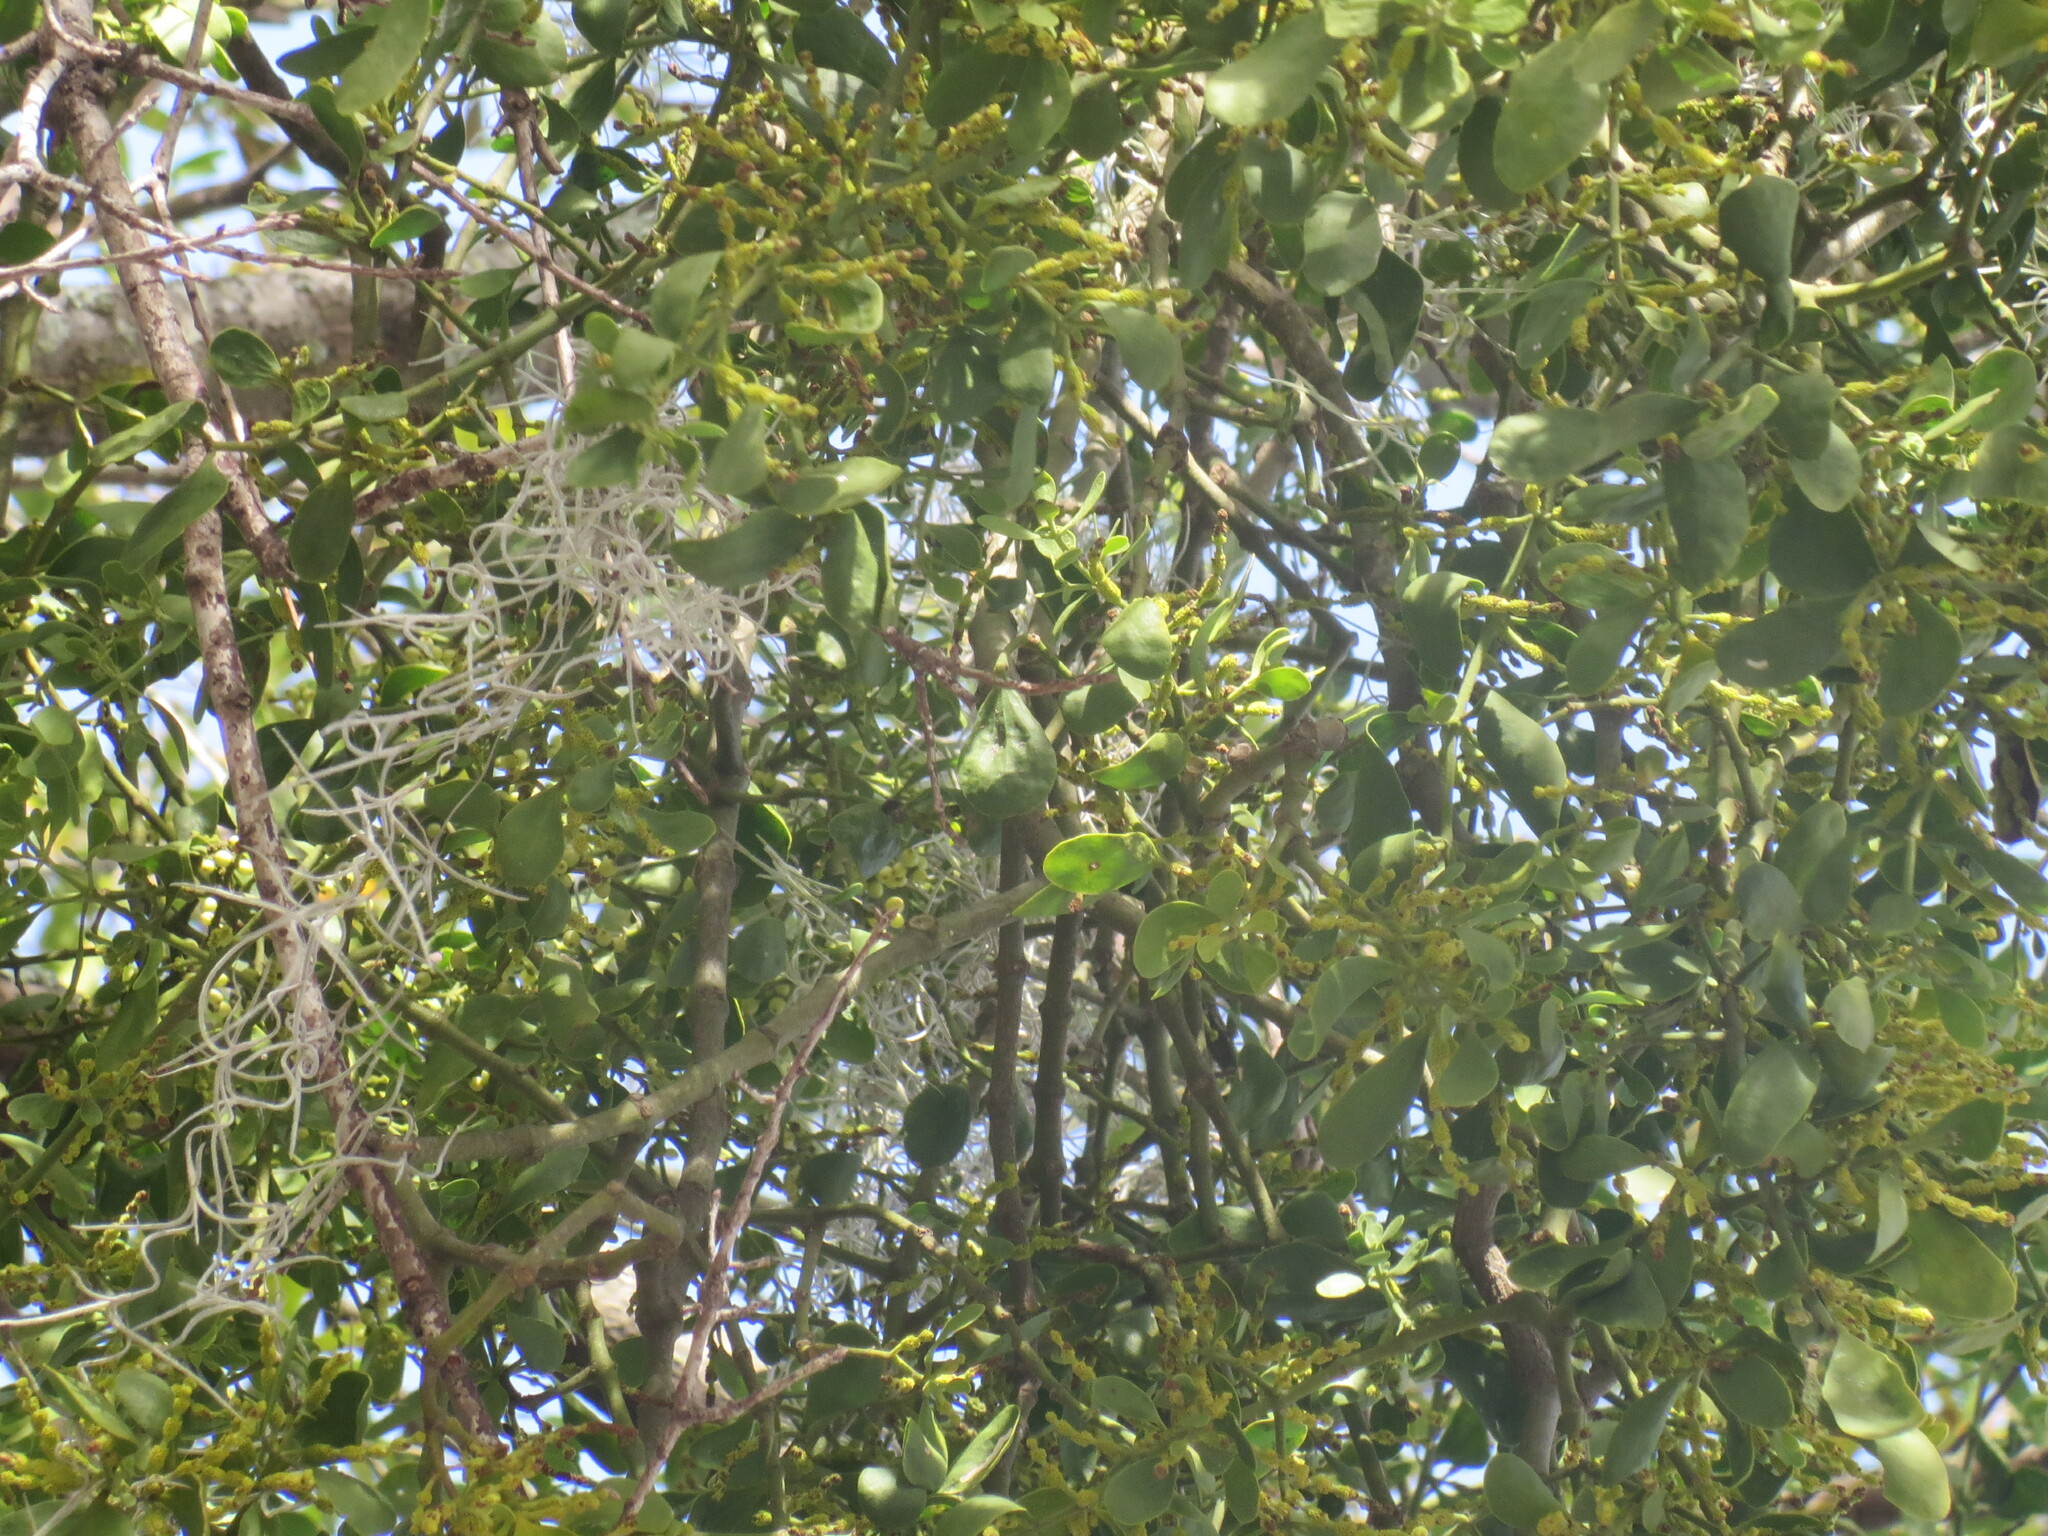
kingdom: Plantae
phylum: Tracheophyta
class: Magnoliopsida
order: Santalales
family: Viscaceae
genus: Phoradendron
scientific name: Phoradendron leucarpum
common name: Pacific mistletoe
